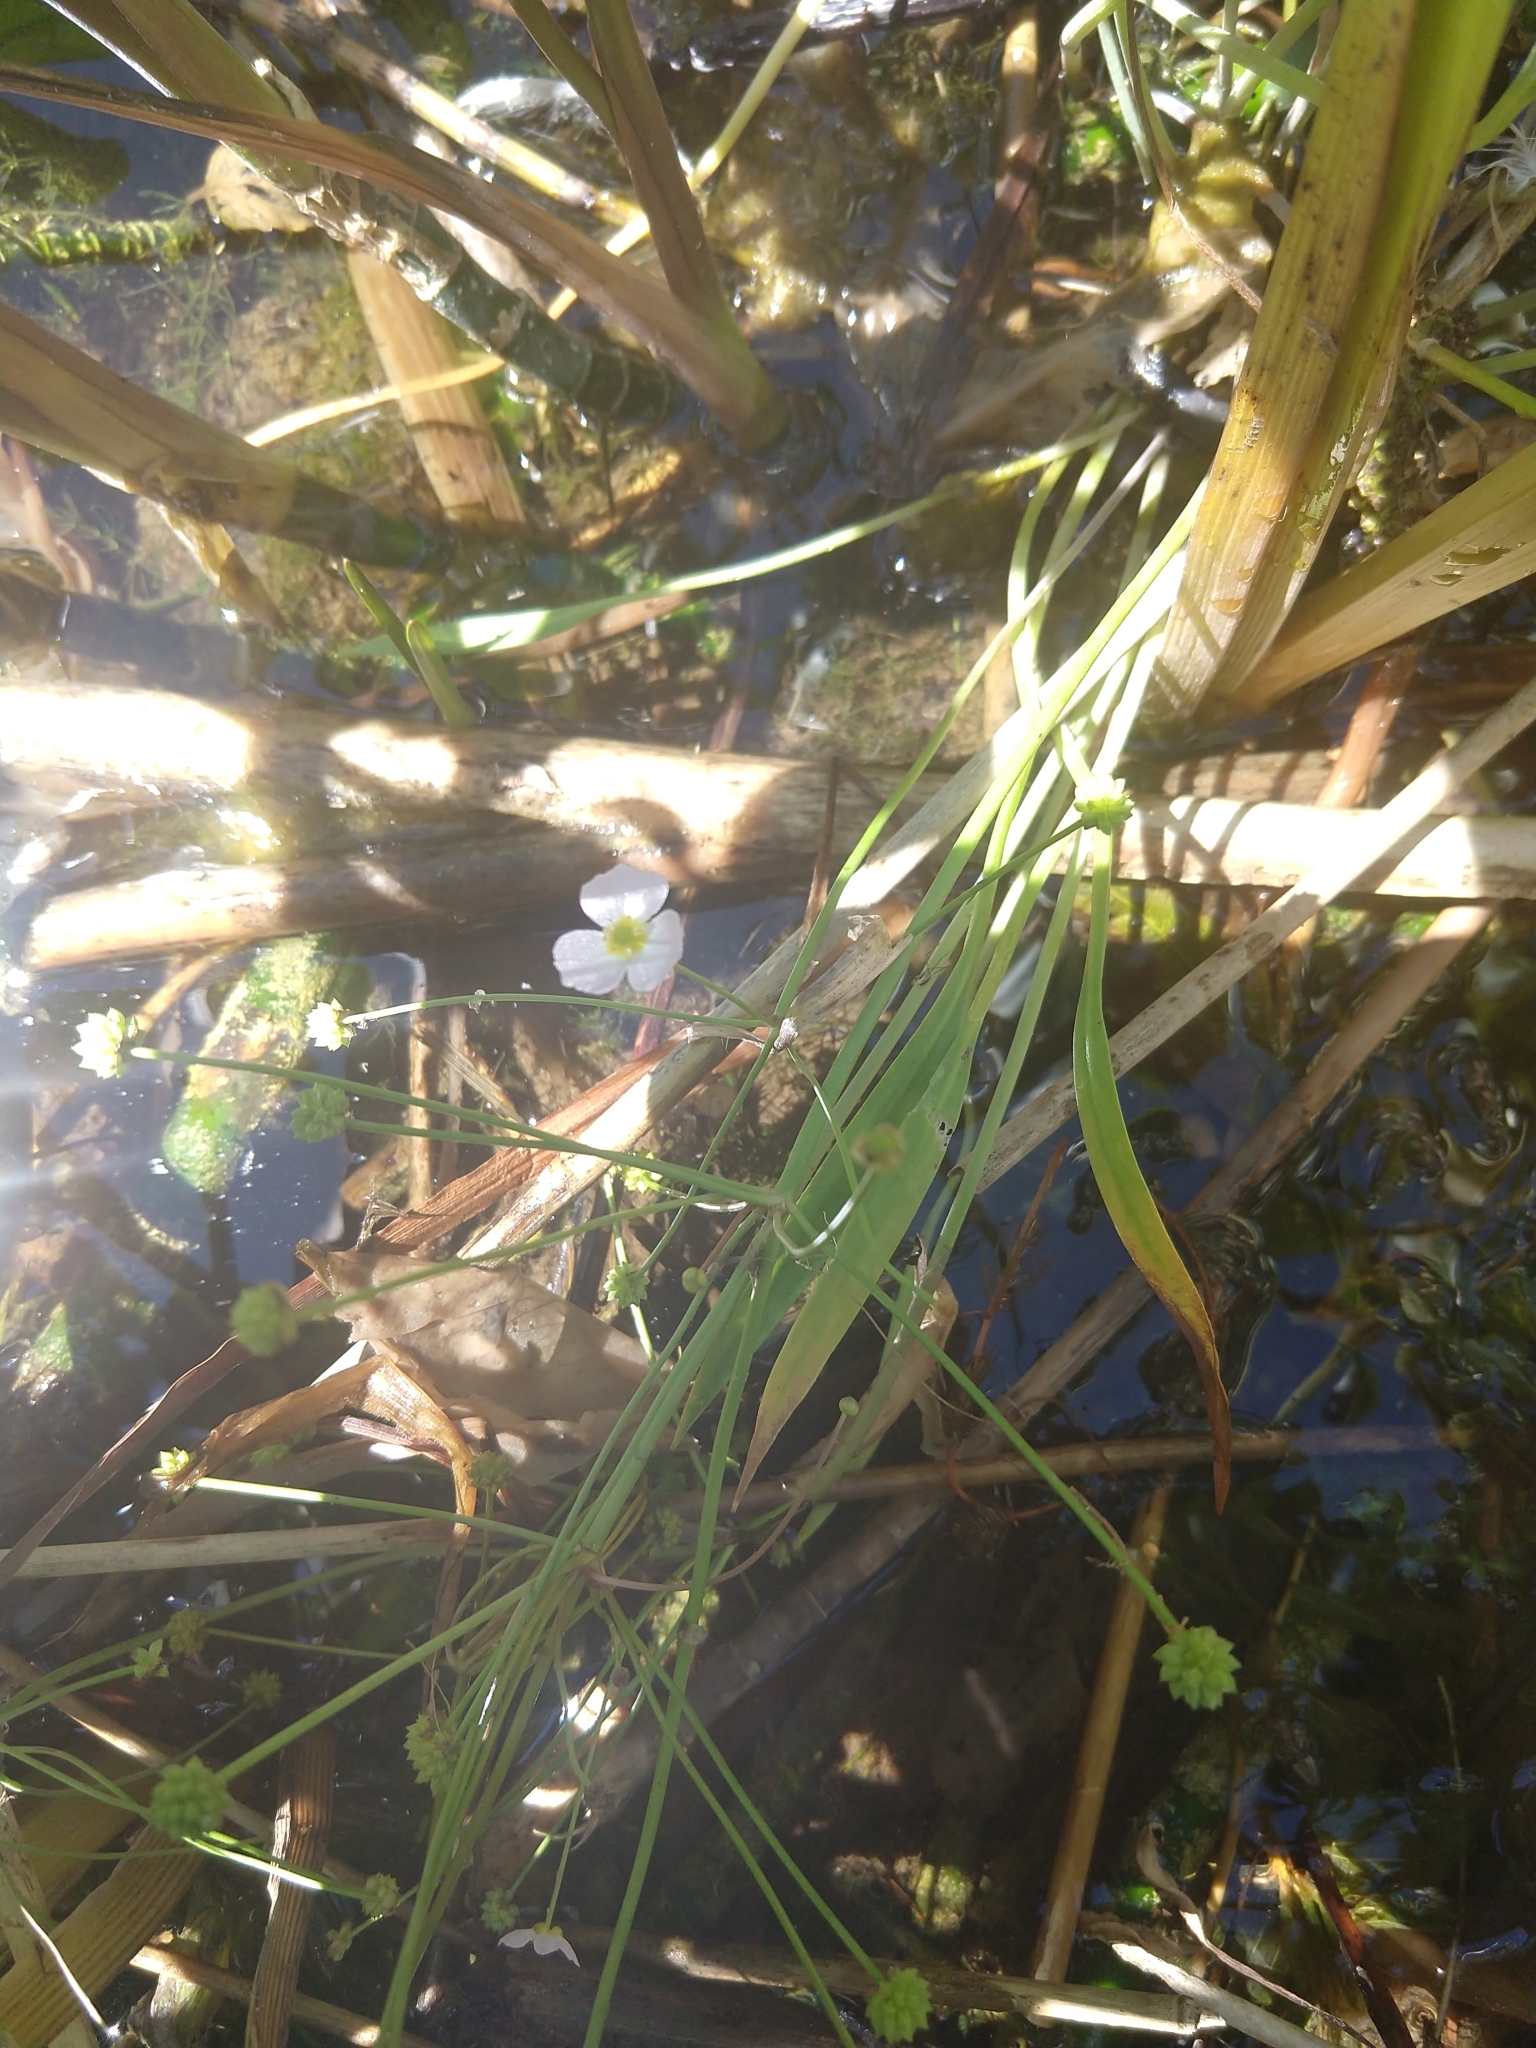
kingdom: Plantae
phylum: Tracheophyta
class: Liliopsida
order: Alismatales
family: Alismataceae
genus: Baldellia
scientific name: Baldellia ranunculoides
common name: Lesser water-plantain
